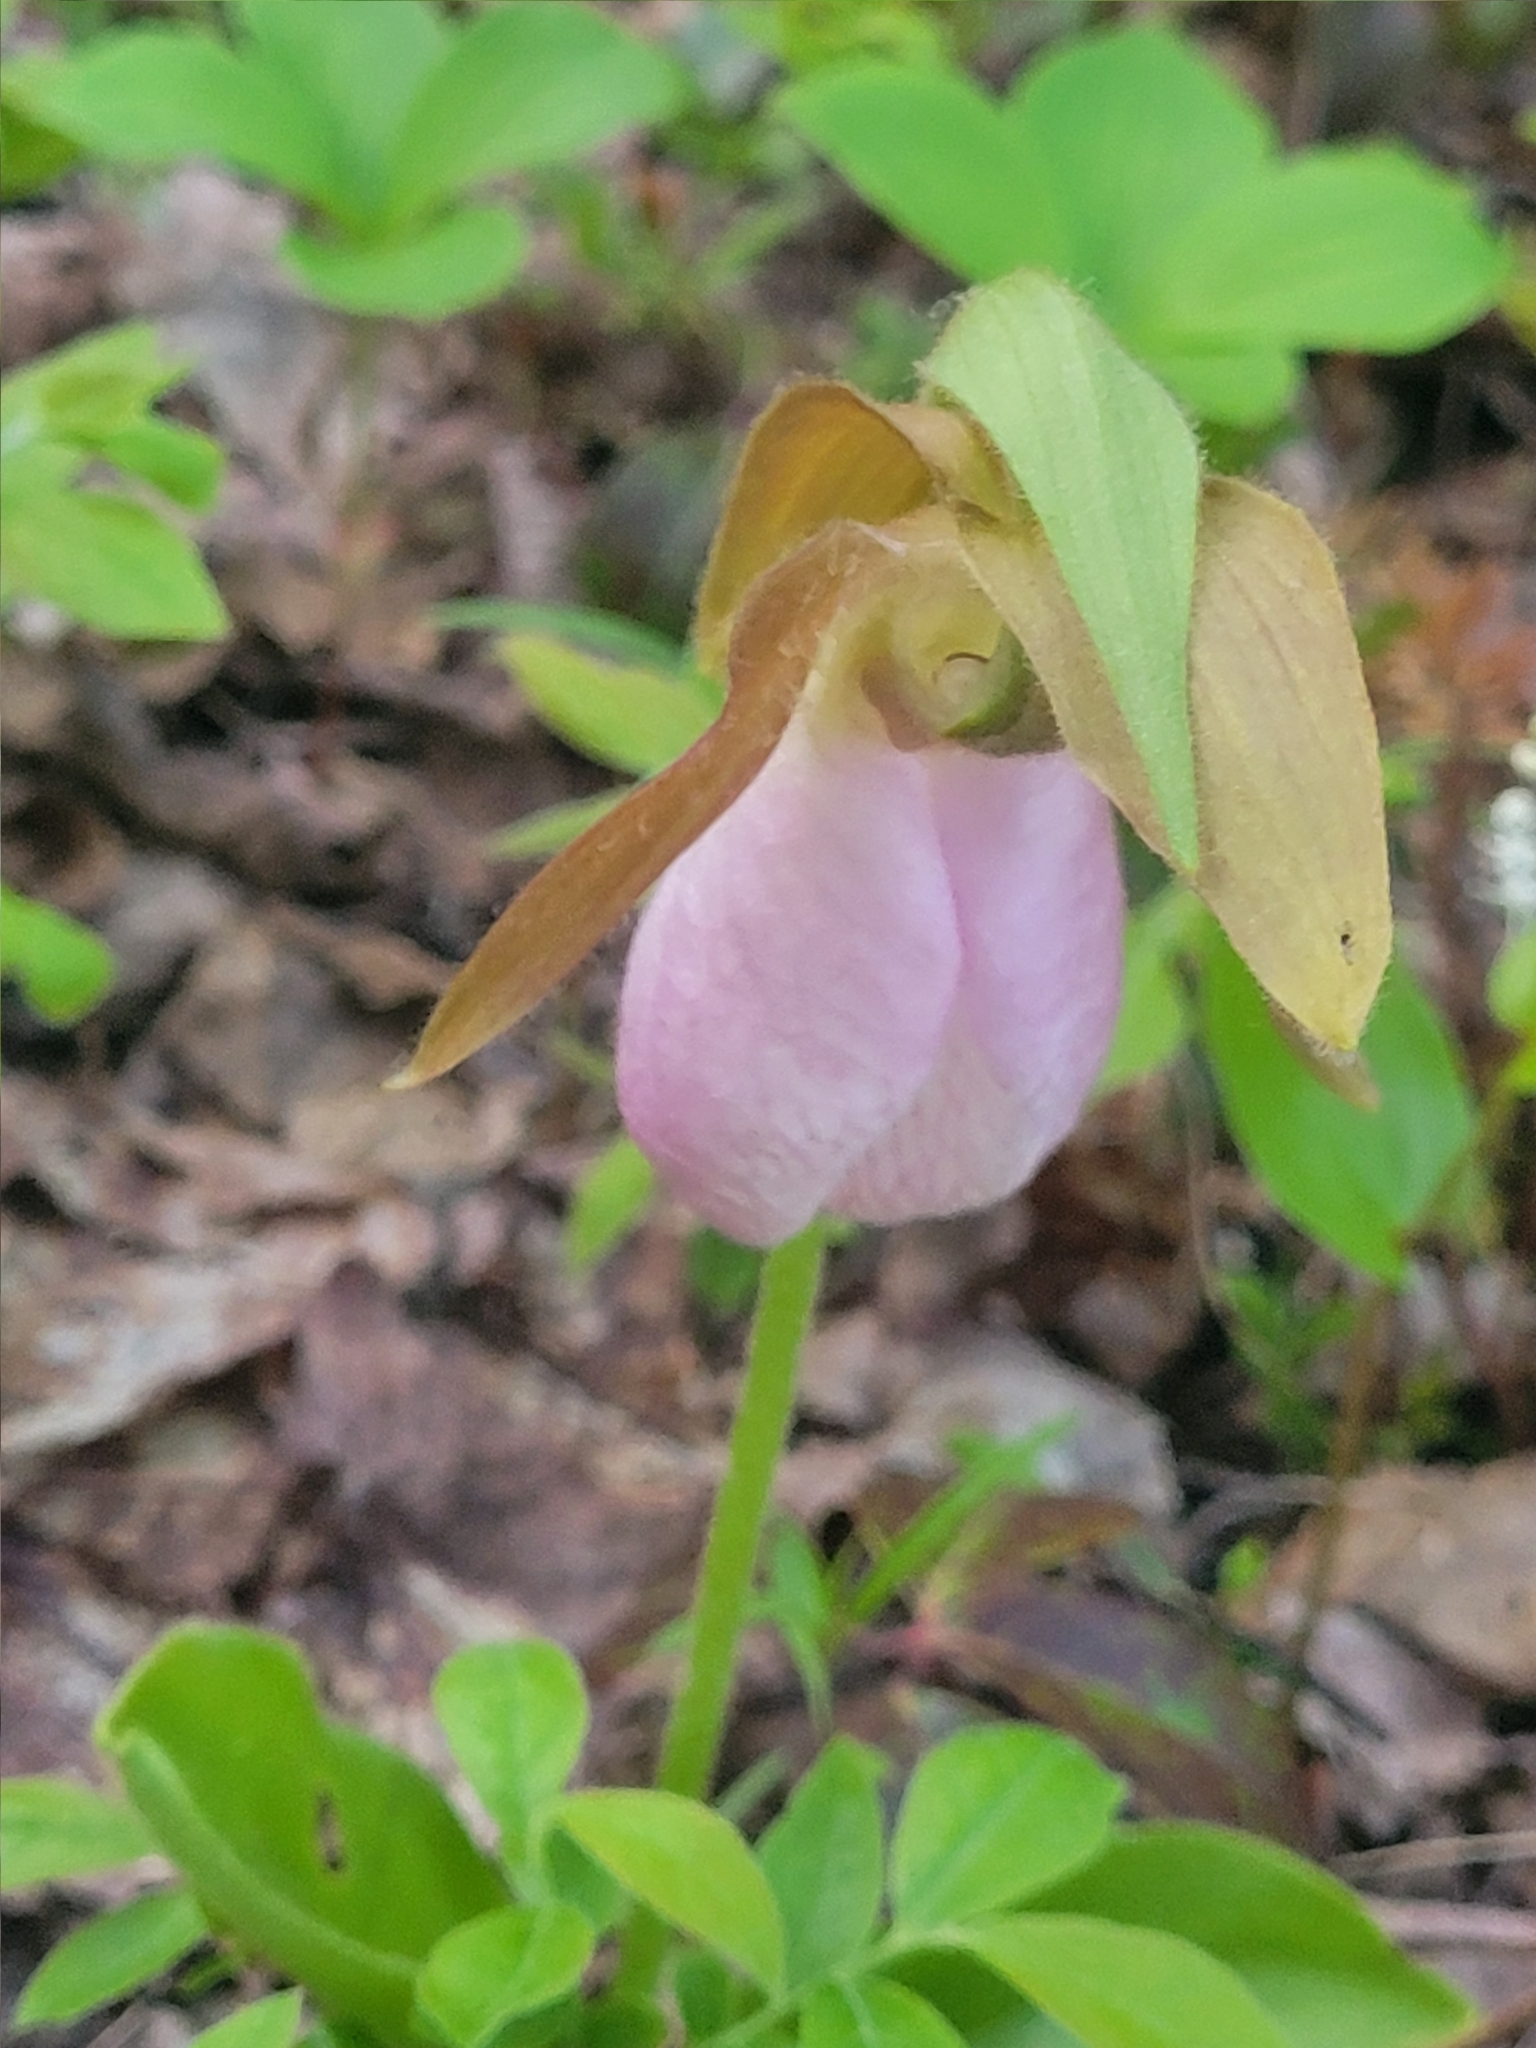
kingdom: Plantae
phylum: Tracheophyta
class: Liliopsida
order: Asparagales
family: Orchidaceae
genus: Cypripedium
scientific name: Cypripedium acaule
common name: Pink lady's-slipper
